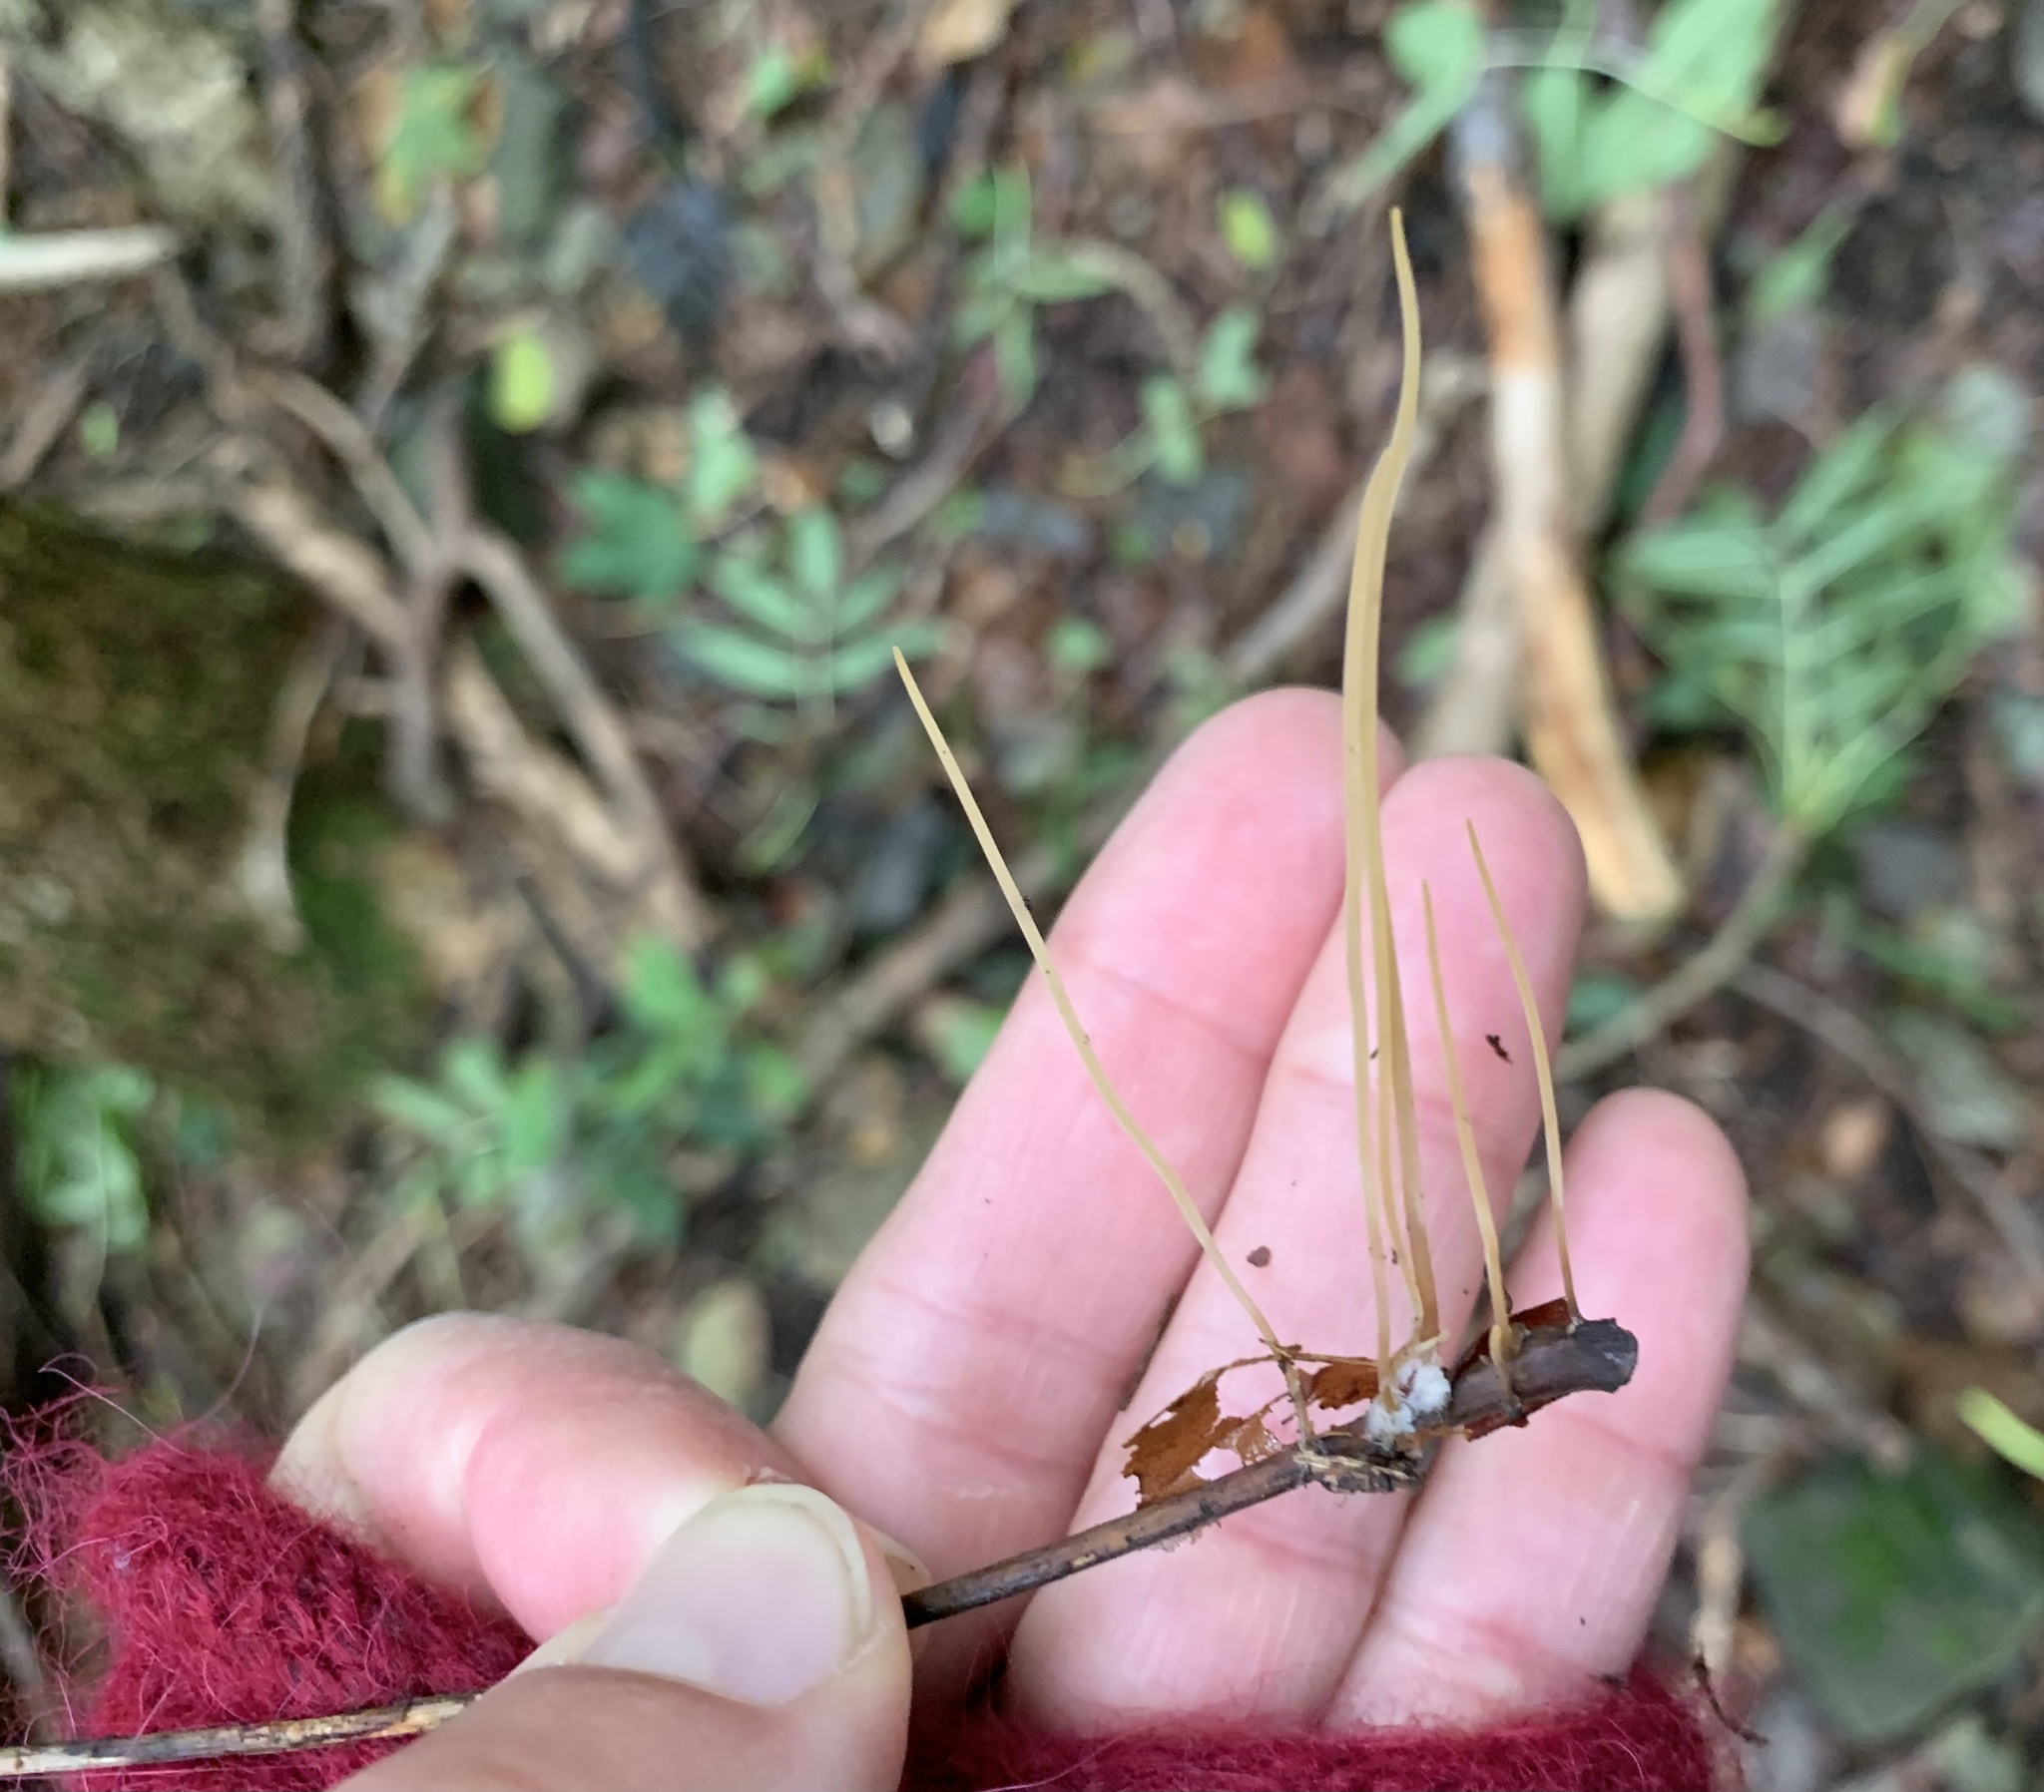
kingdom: Fungi
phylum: Basidiomycota
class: Agaricomycetes
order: Agaricales
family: Typhulaceae
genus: Typhula
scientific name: Typhula juncea
